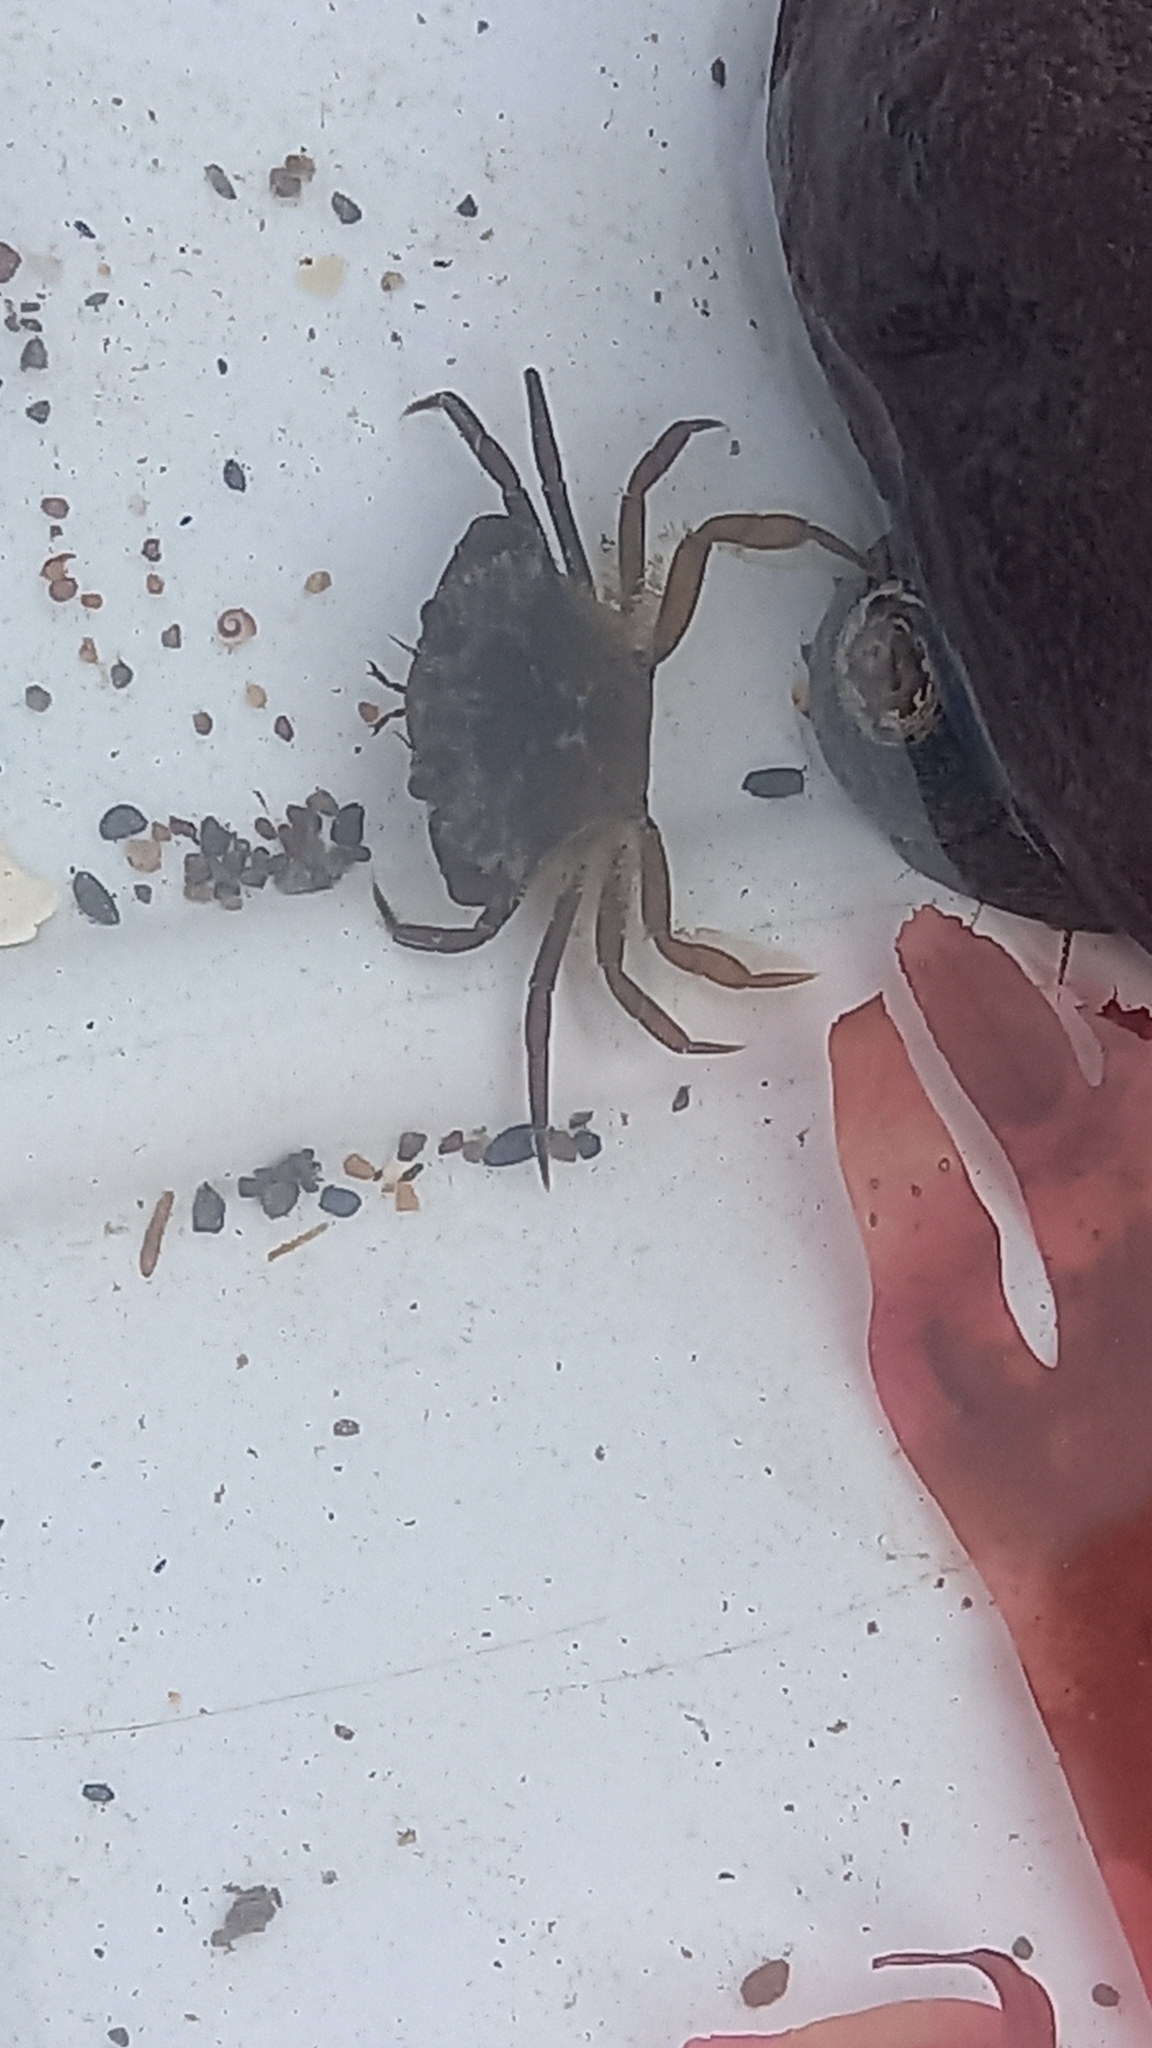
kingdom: Animalia
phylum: Arthropoda
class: Malacostraca
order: Decapoda
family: Carcinidae
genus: Carcinus
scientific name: Carcinus maenas
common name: European green crab
